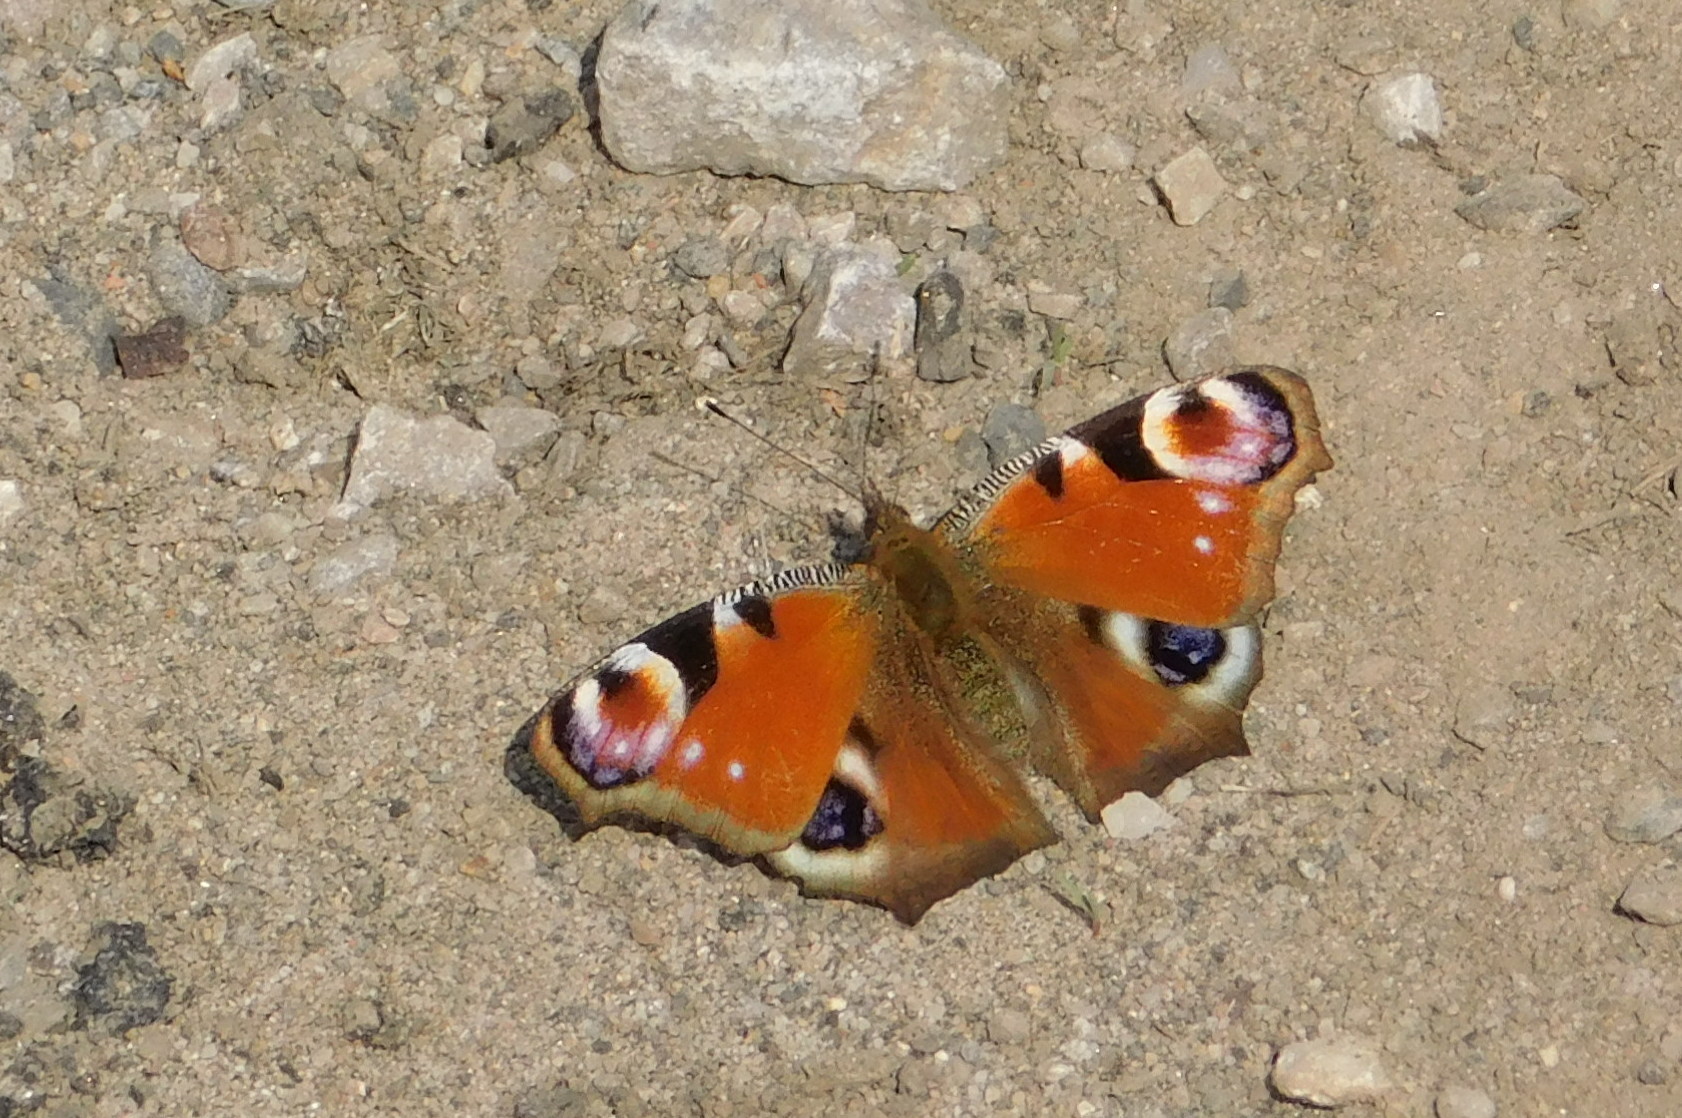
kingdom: Animalia
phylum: Arthropoda
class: Insecta
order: Lepidoptera
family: Nymphalidae
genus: Aglais
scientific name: Aglais io
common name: Peacock
